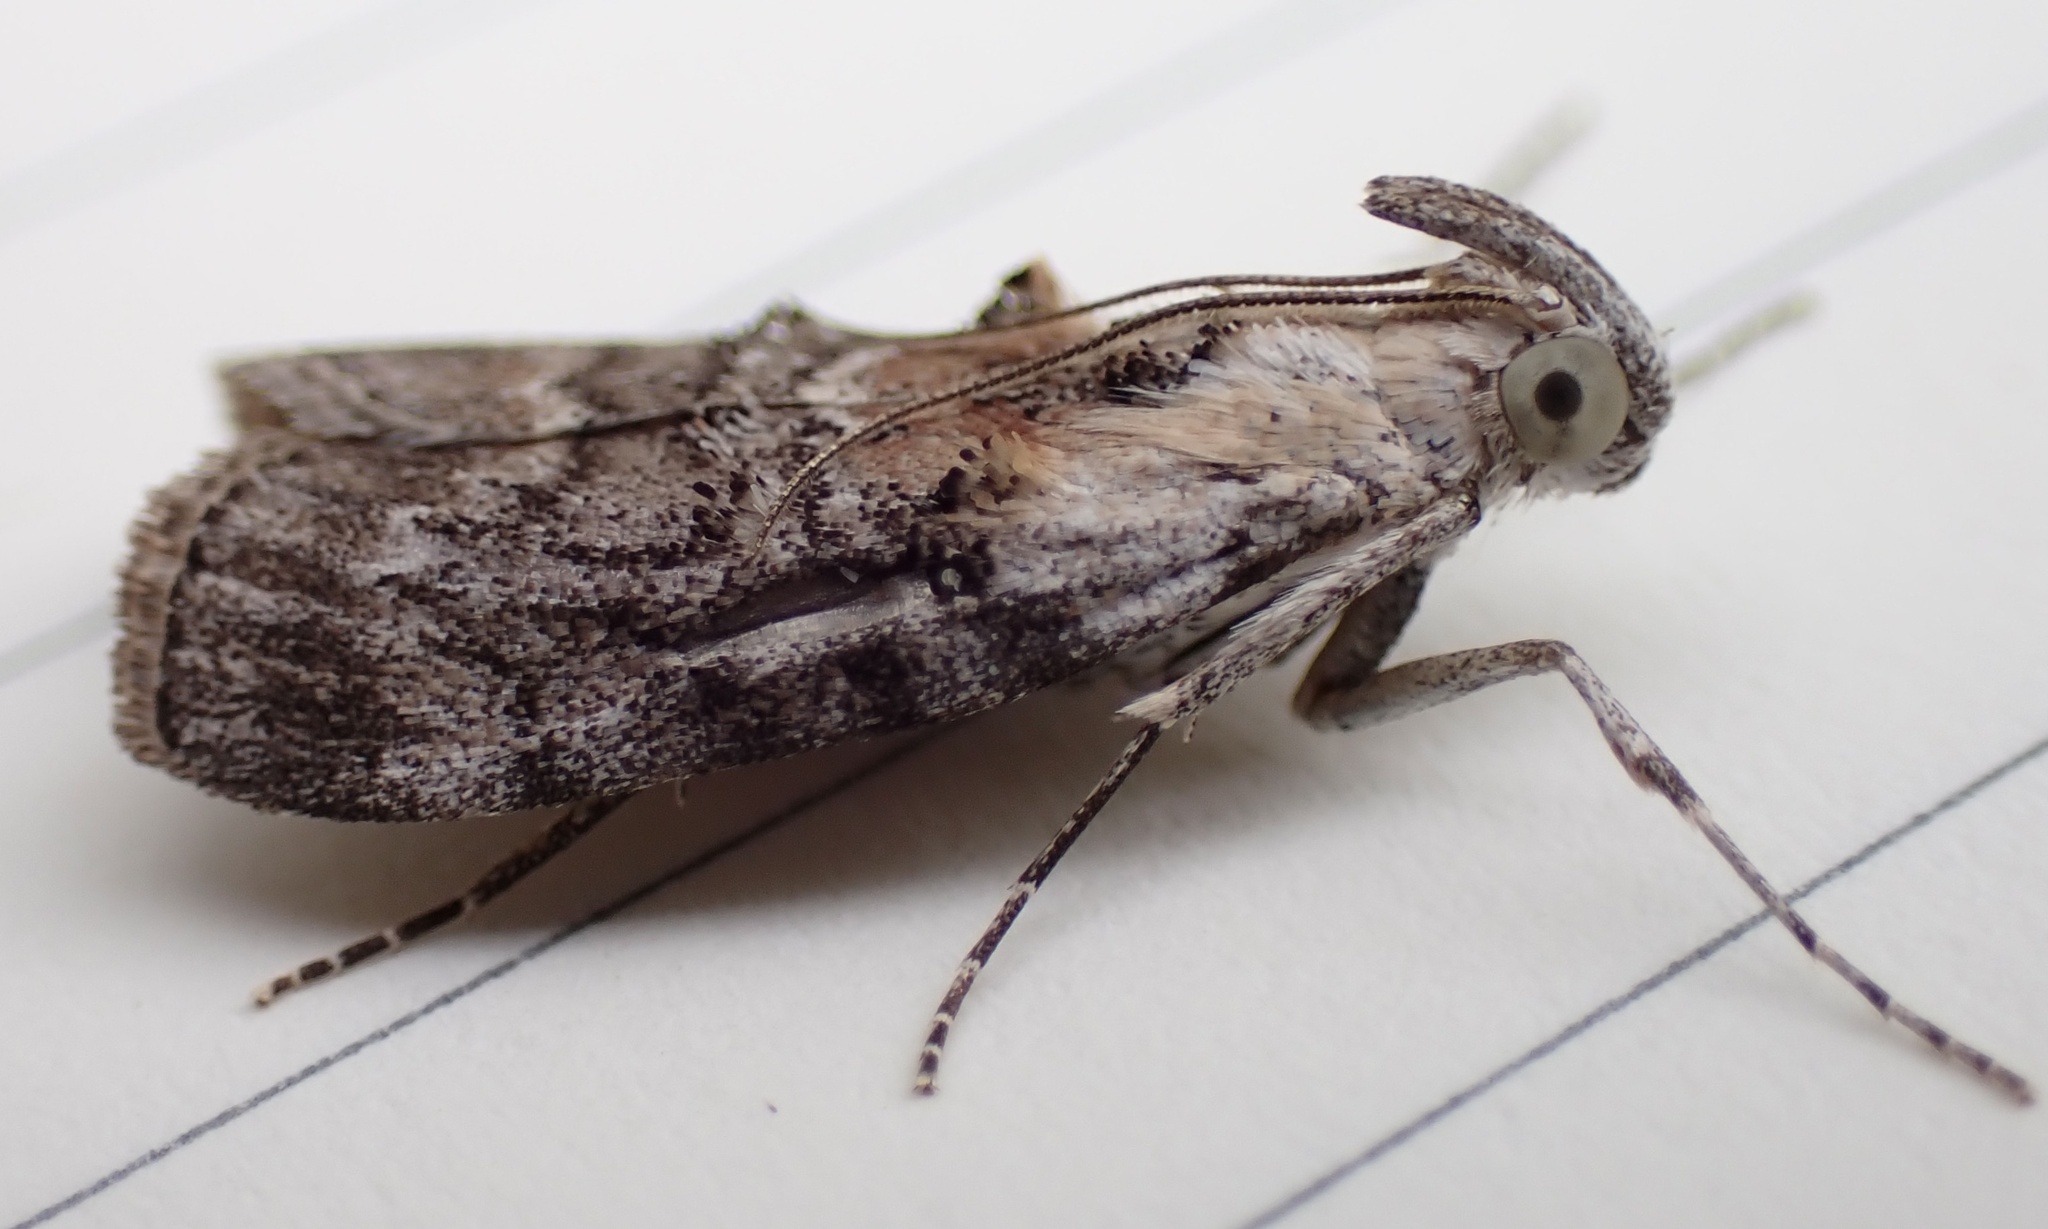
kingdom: Animalia
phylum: Arthropoda
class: Insecta
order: Lepidoptera
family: Pyralidae
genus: Pococera
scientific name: Pococera expandens
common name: Striped oak webworm moth
